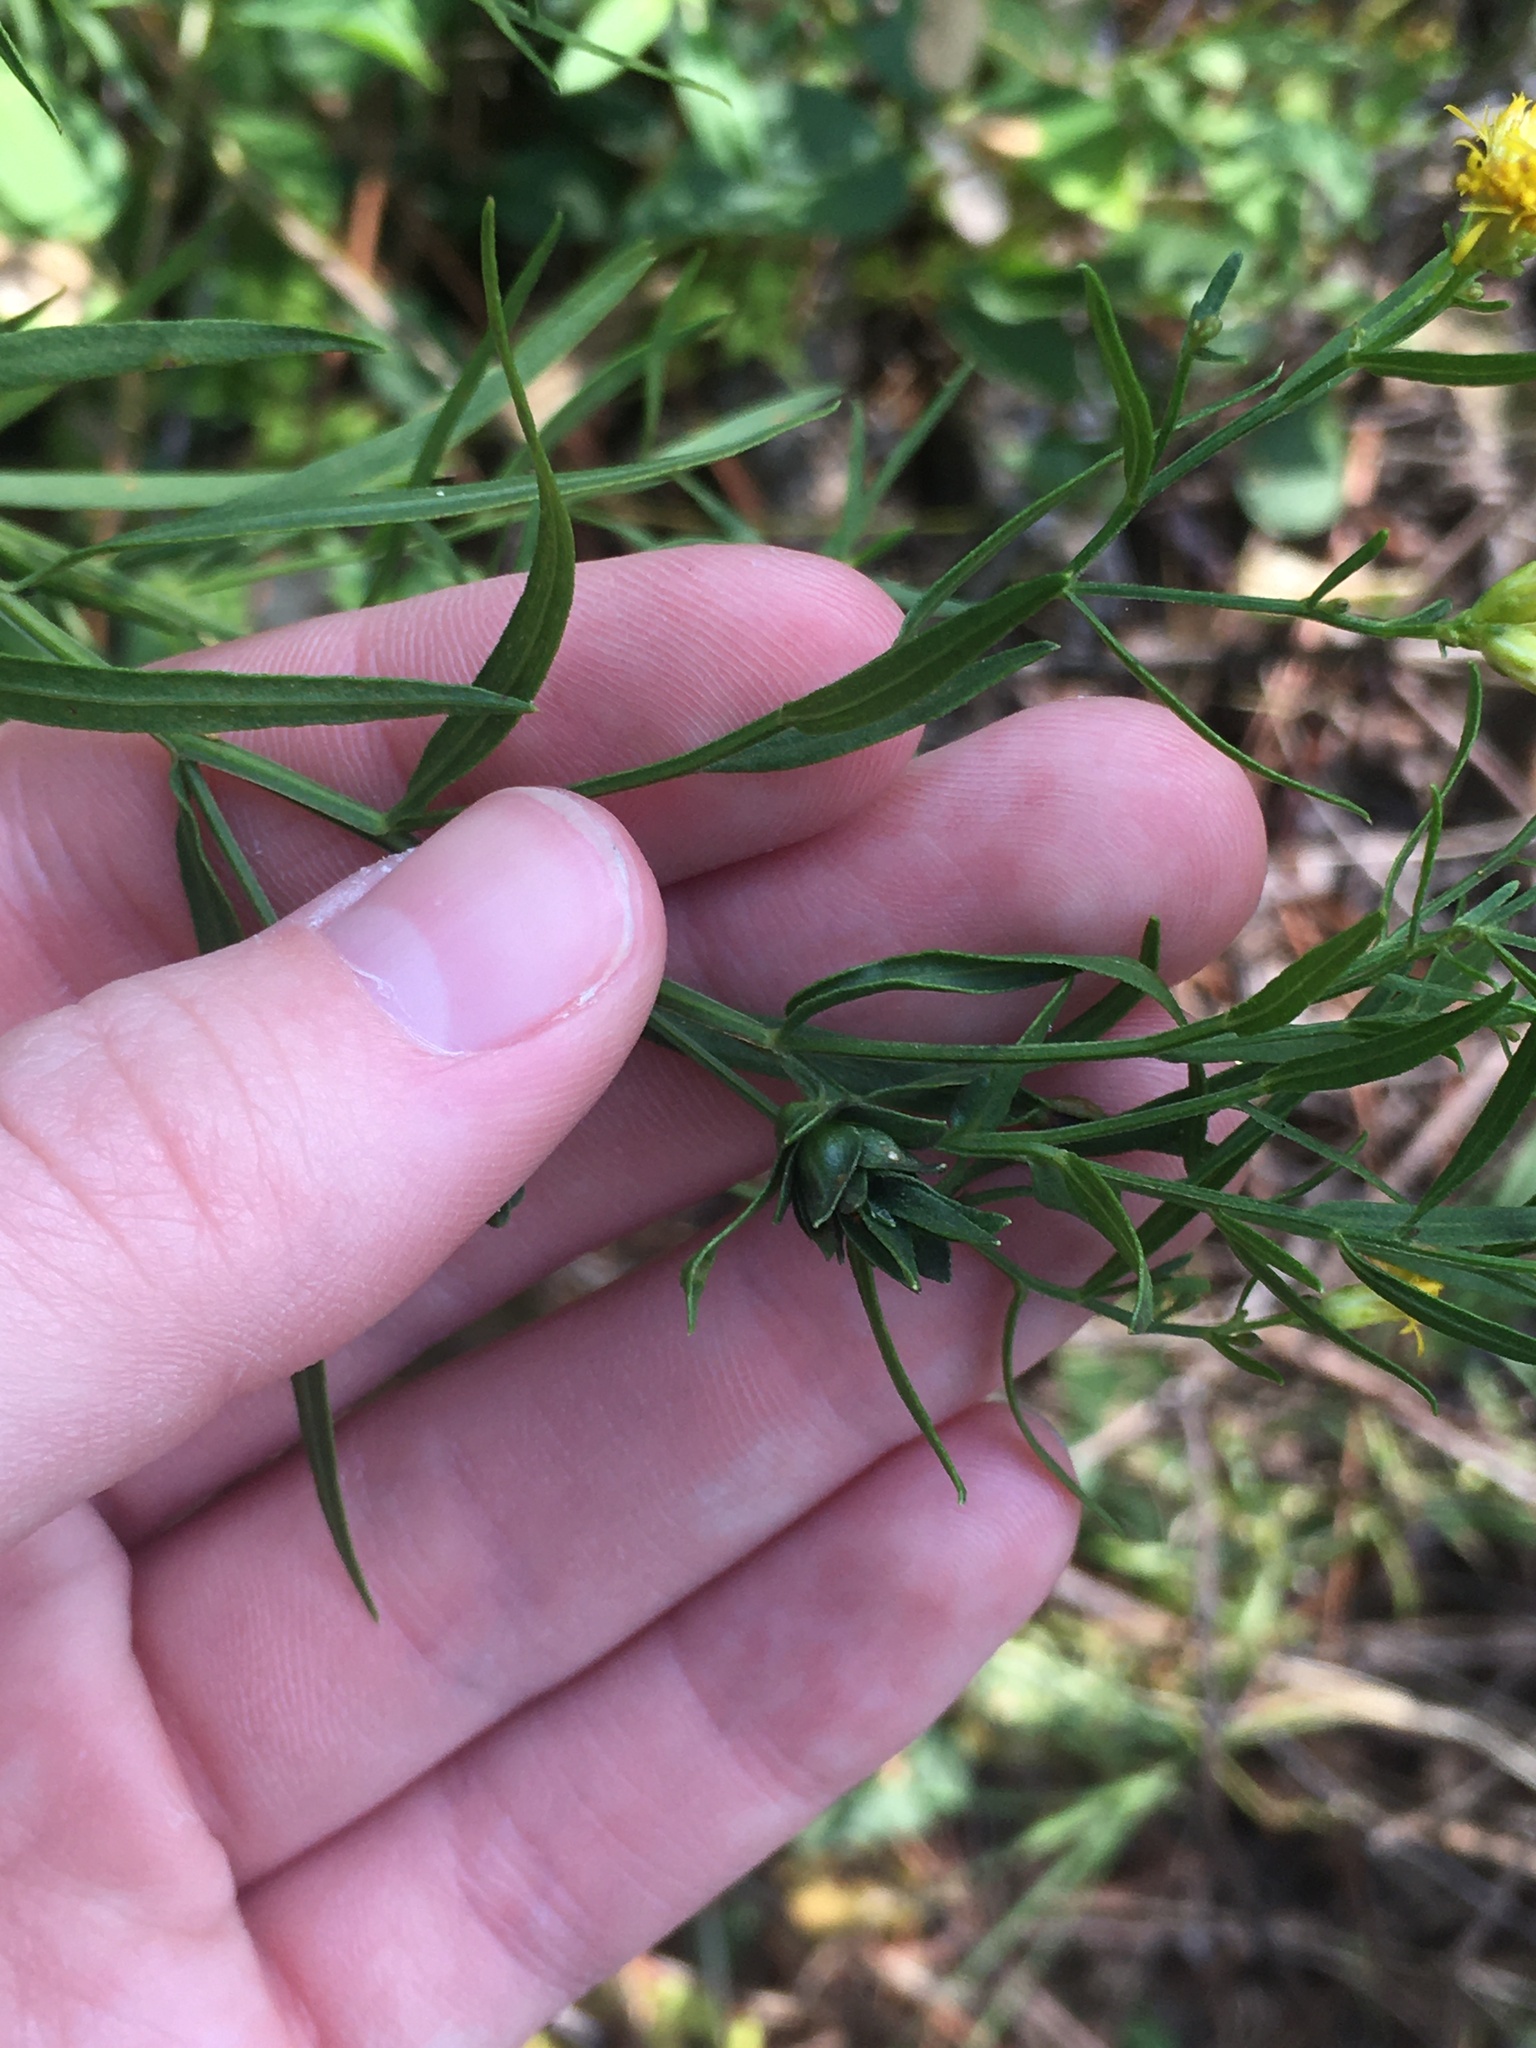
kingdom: Animalia
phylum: Arthropoda
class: Insecta
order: Diptera
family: Cecidomyiidae
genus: Asphondylia
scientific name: Asphondylia pseudorosa
